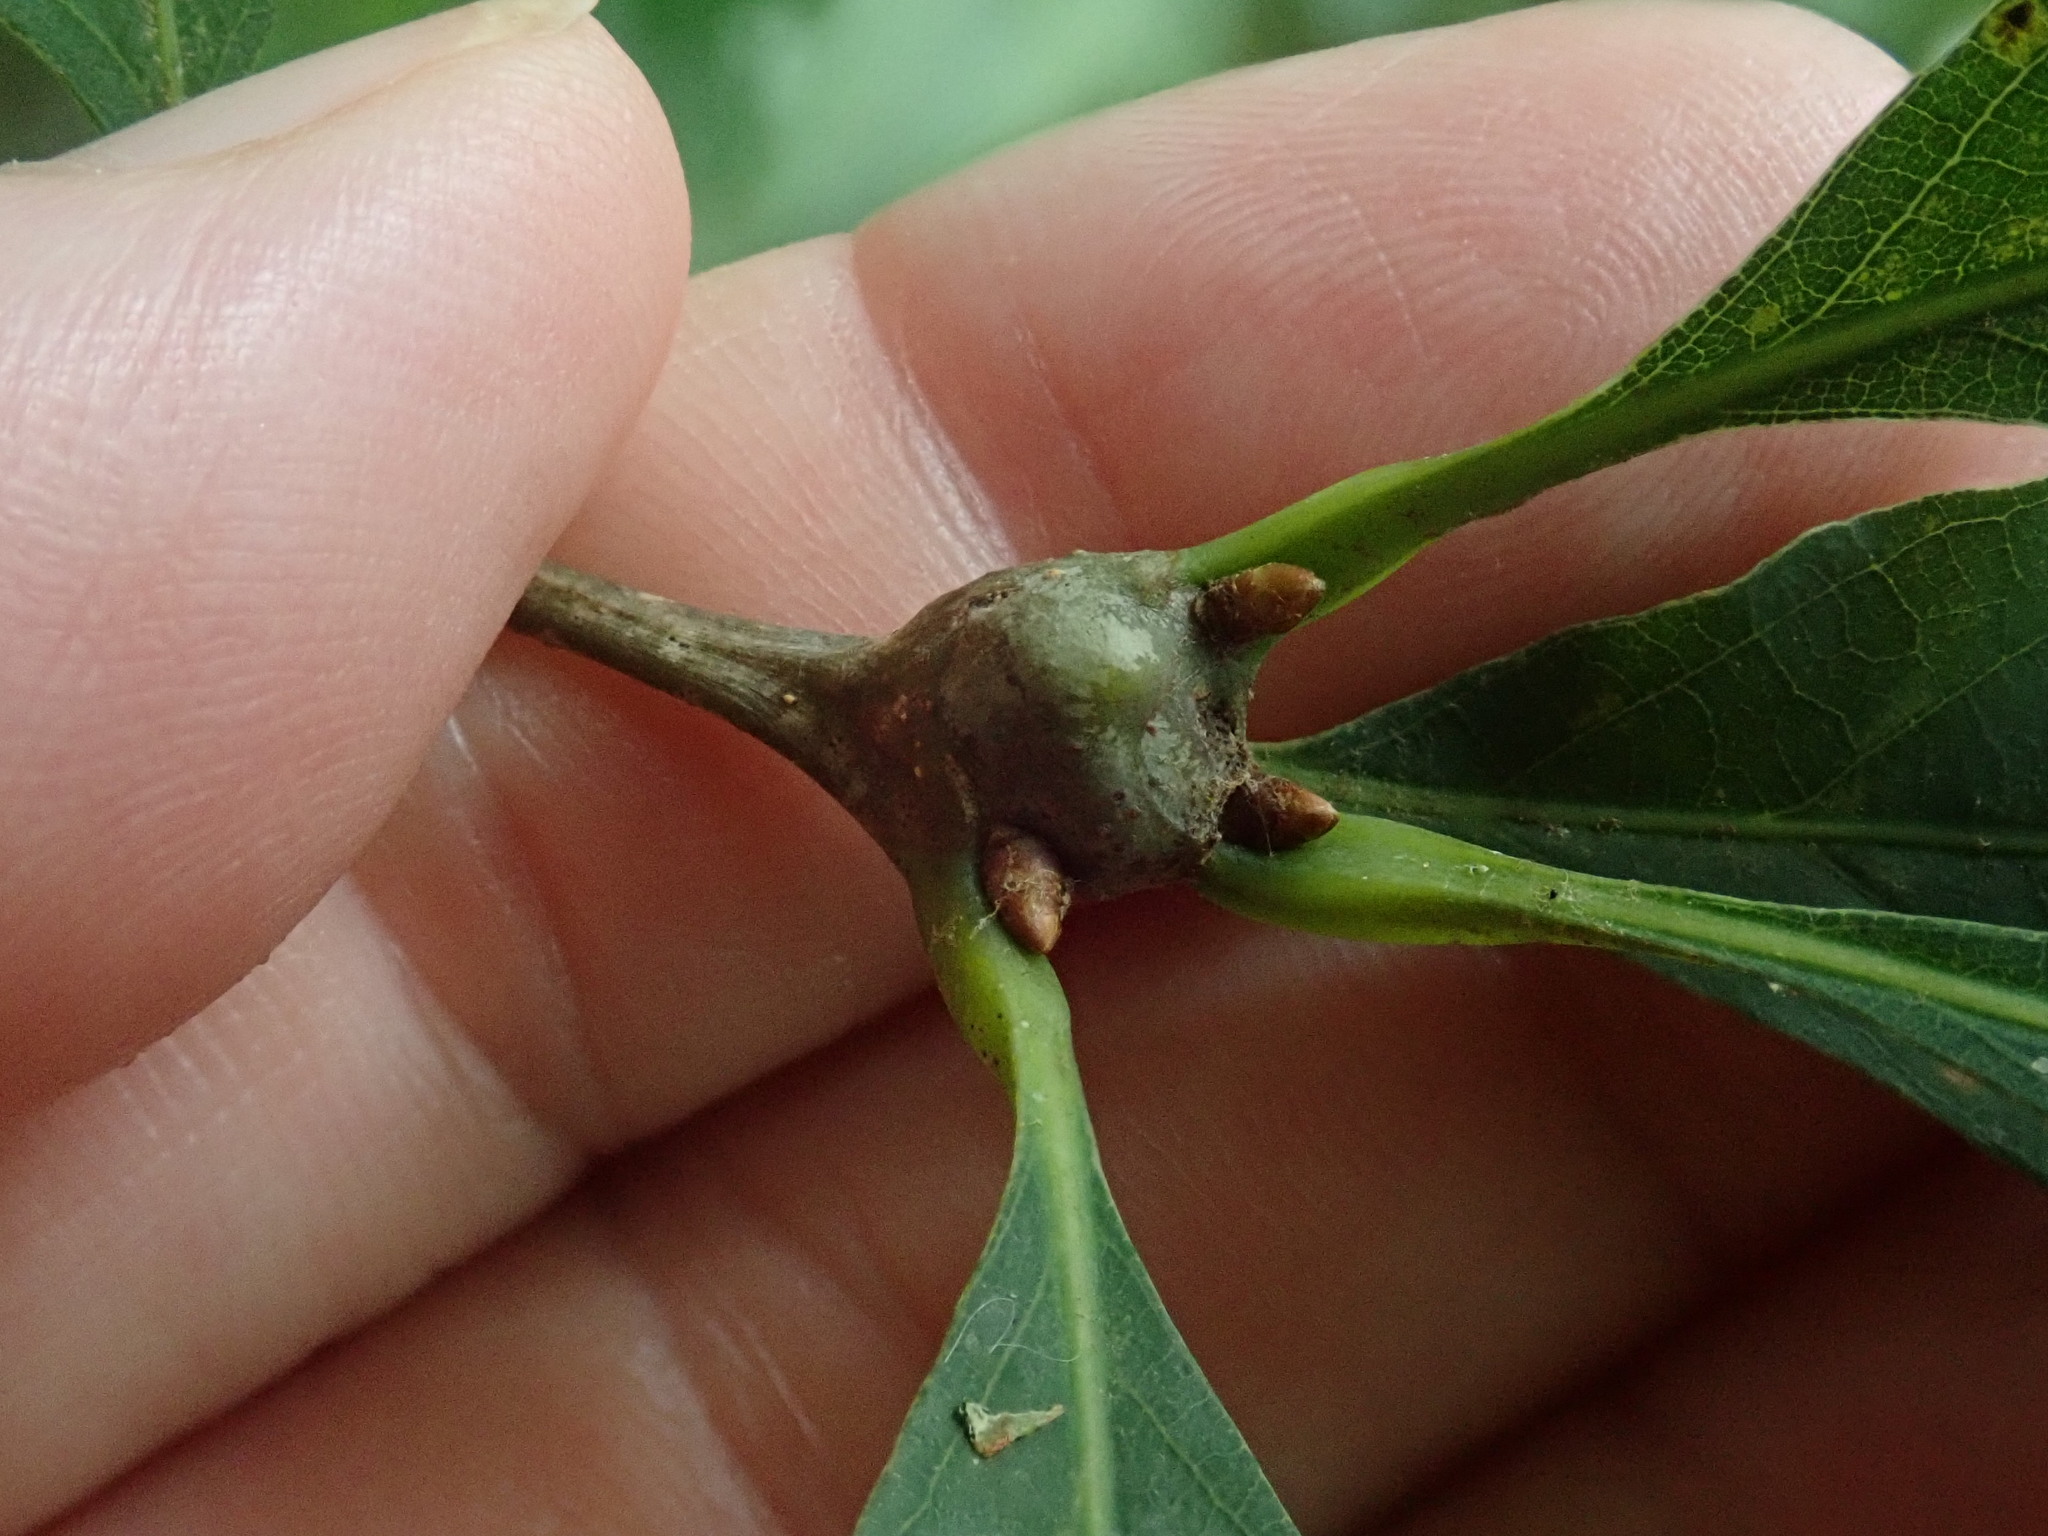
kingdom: Animalia
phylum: Arthropoda
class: Insecta
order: Hymenoptera
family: Cynipidae
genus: Callirhytis
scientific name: Callirhytis clavula
